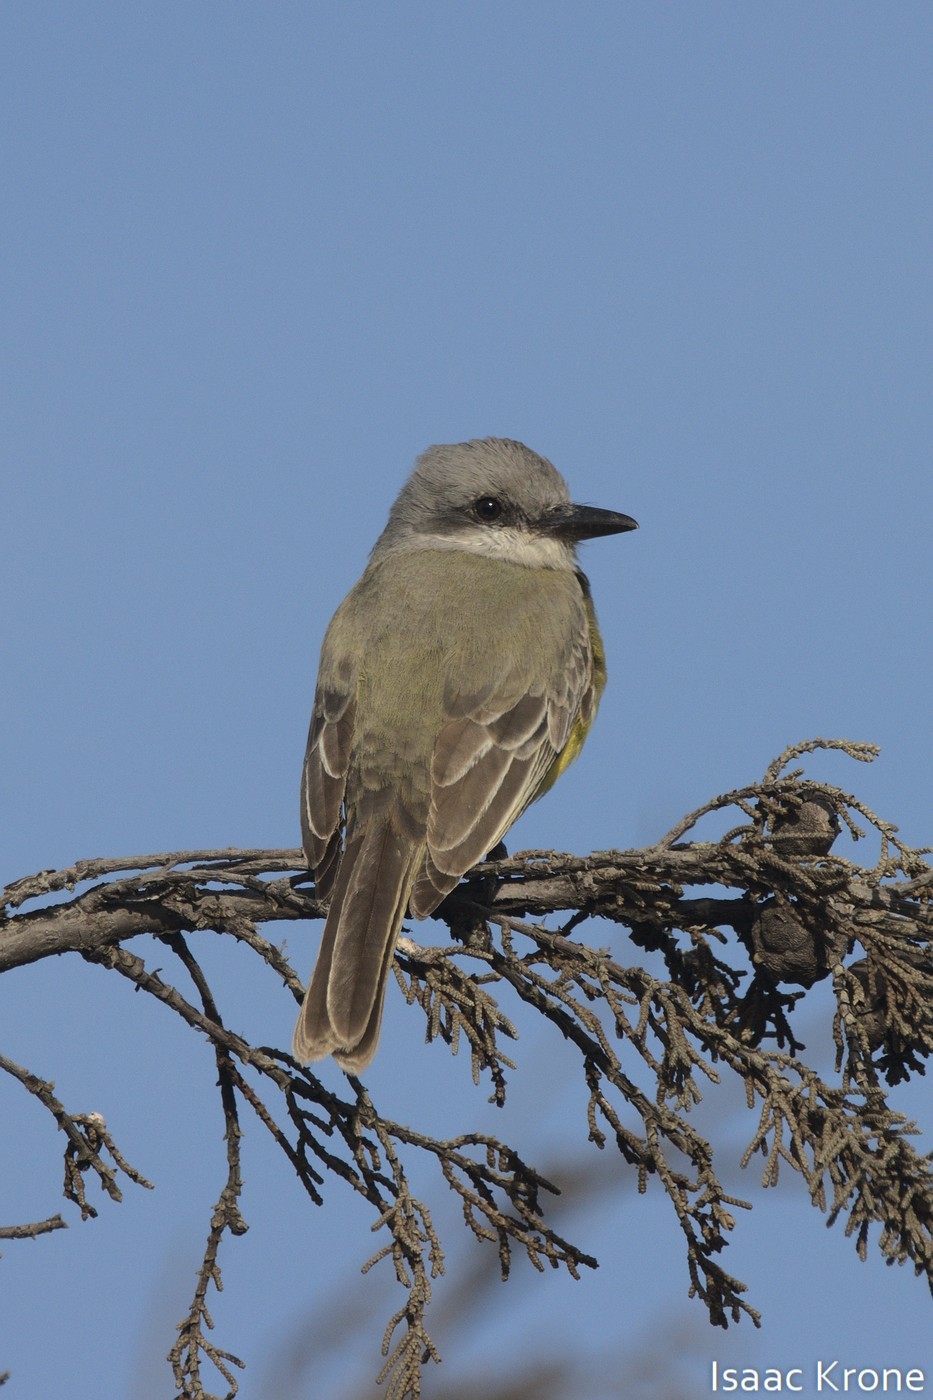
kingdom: Animalia
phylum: Chordata
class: Aves
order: Passeriformes
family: Tyrannidae
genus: Tyrannus
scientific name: Tyrannus melancholicus
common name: Tropical kingbird
